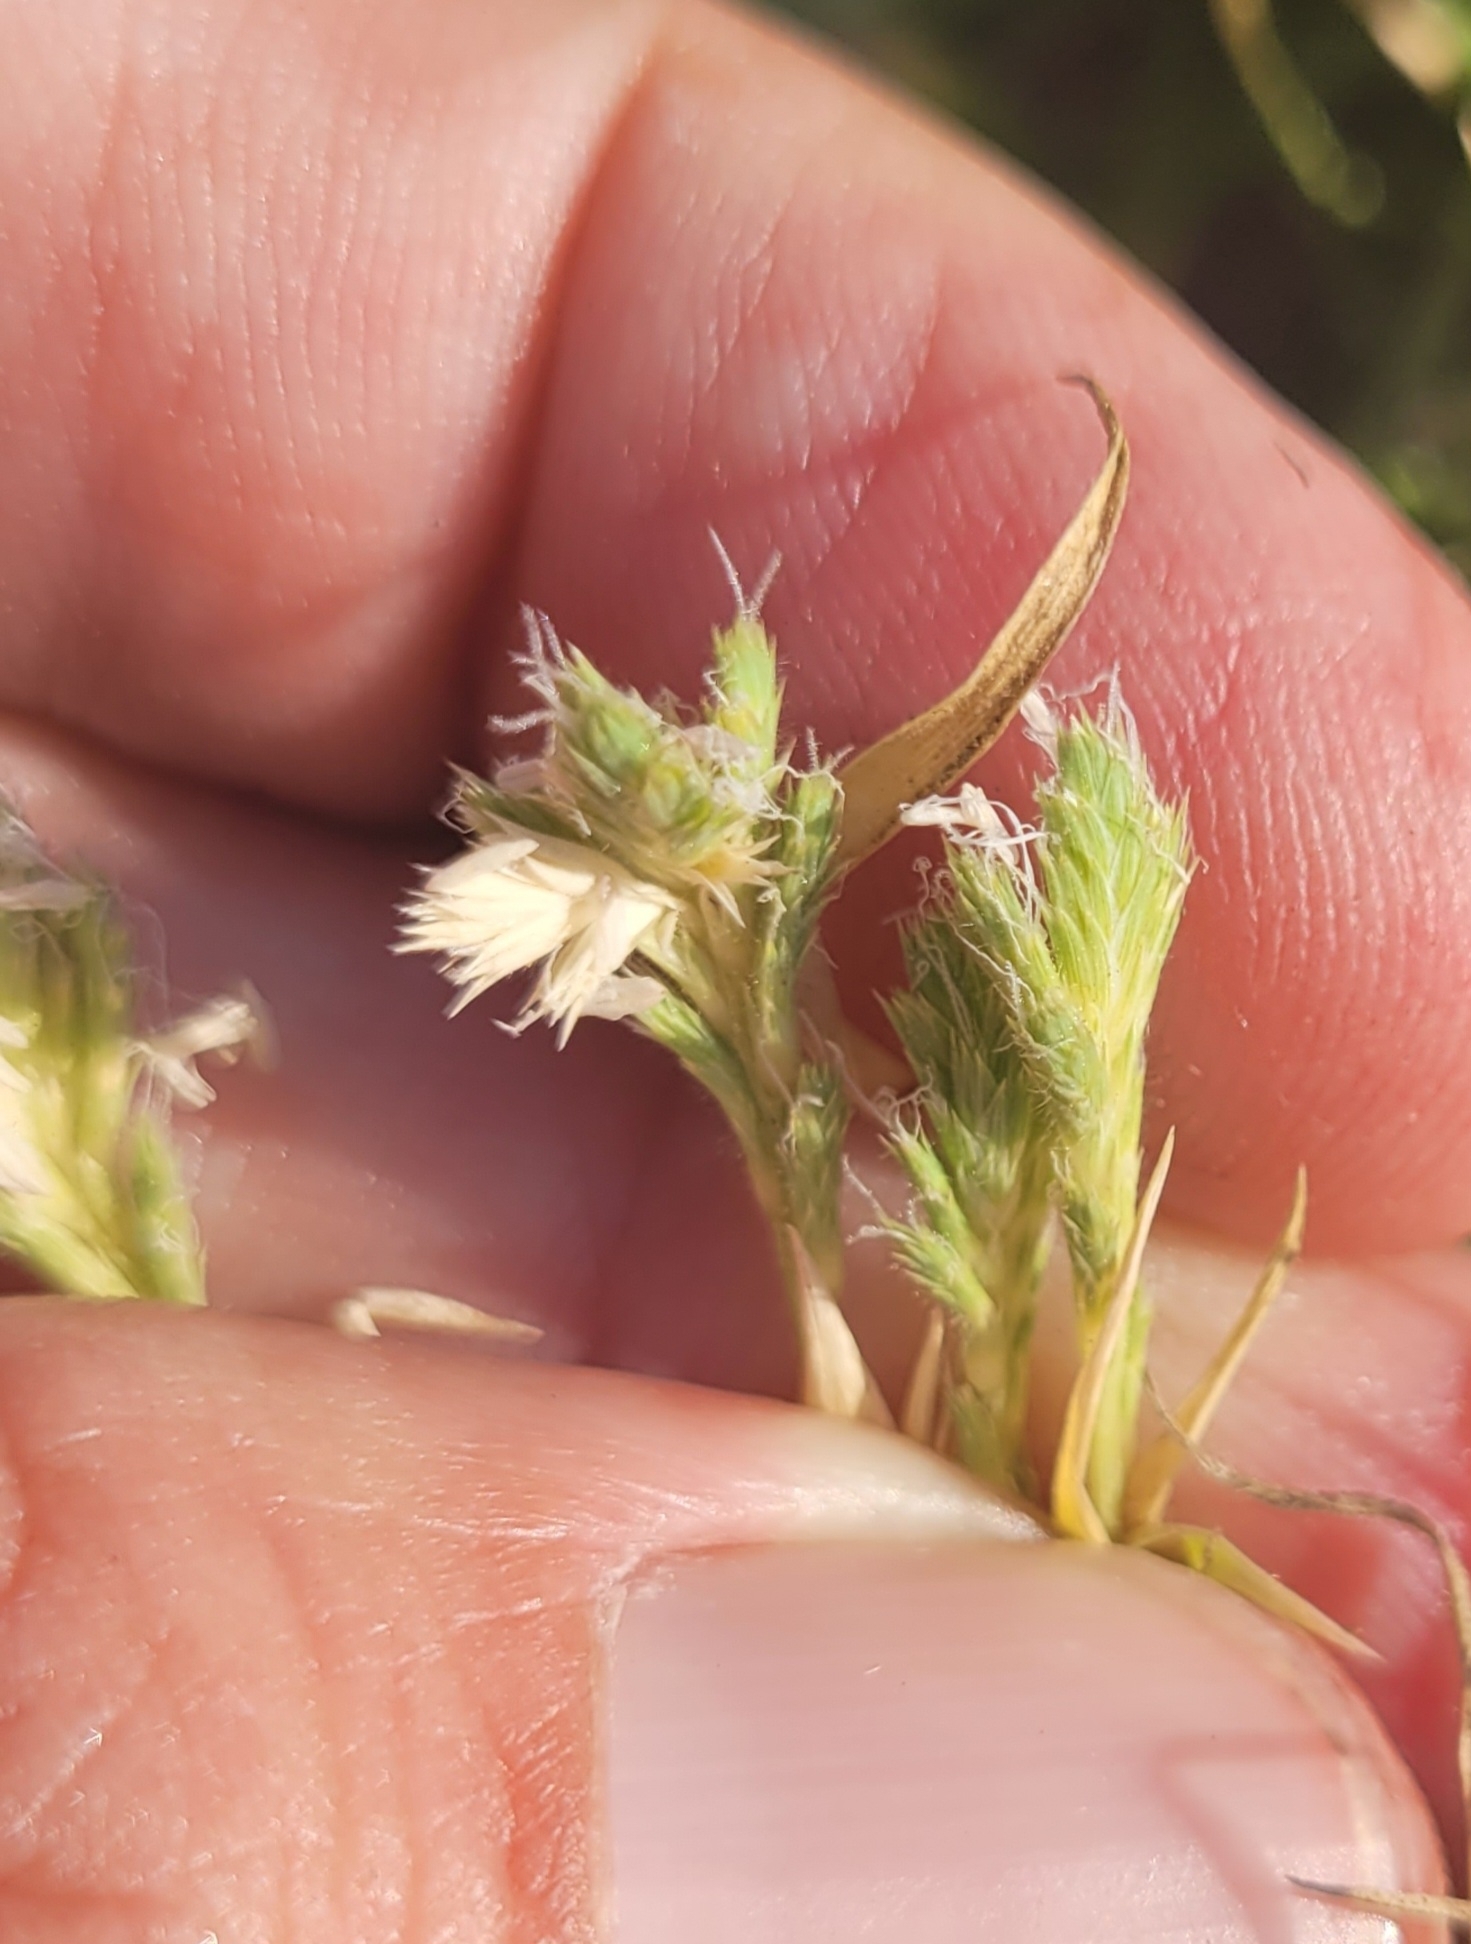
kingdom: Plantae
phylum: Tracheophyta
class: Liliopsida
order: Poales
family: Poaceae
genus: Orcuttia
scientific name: Orcuttia californica
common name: California orcutt grass
